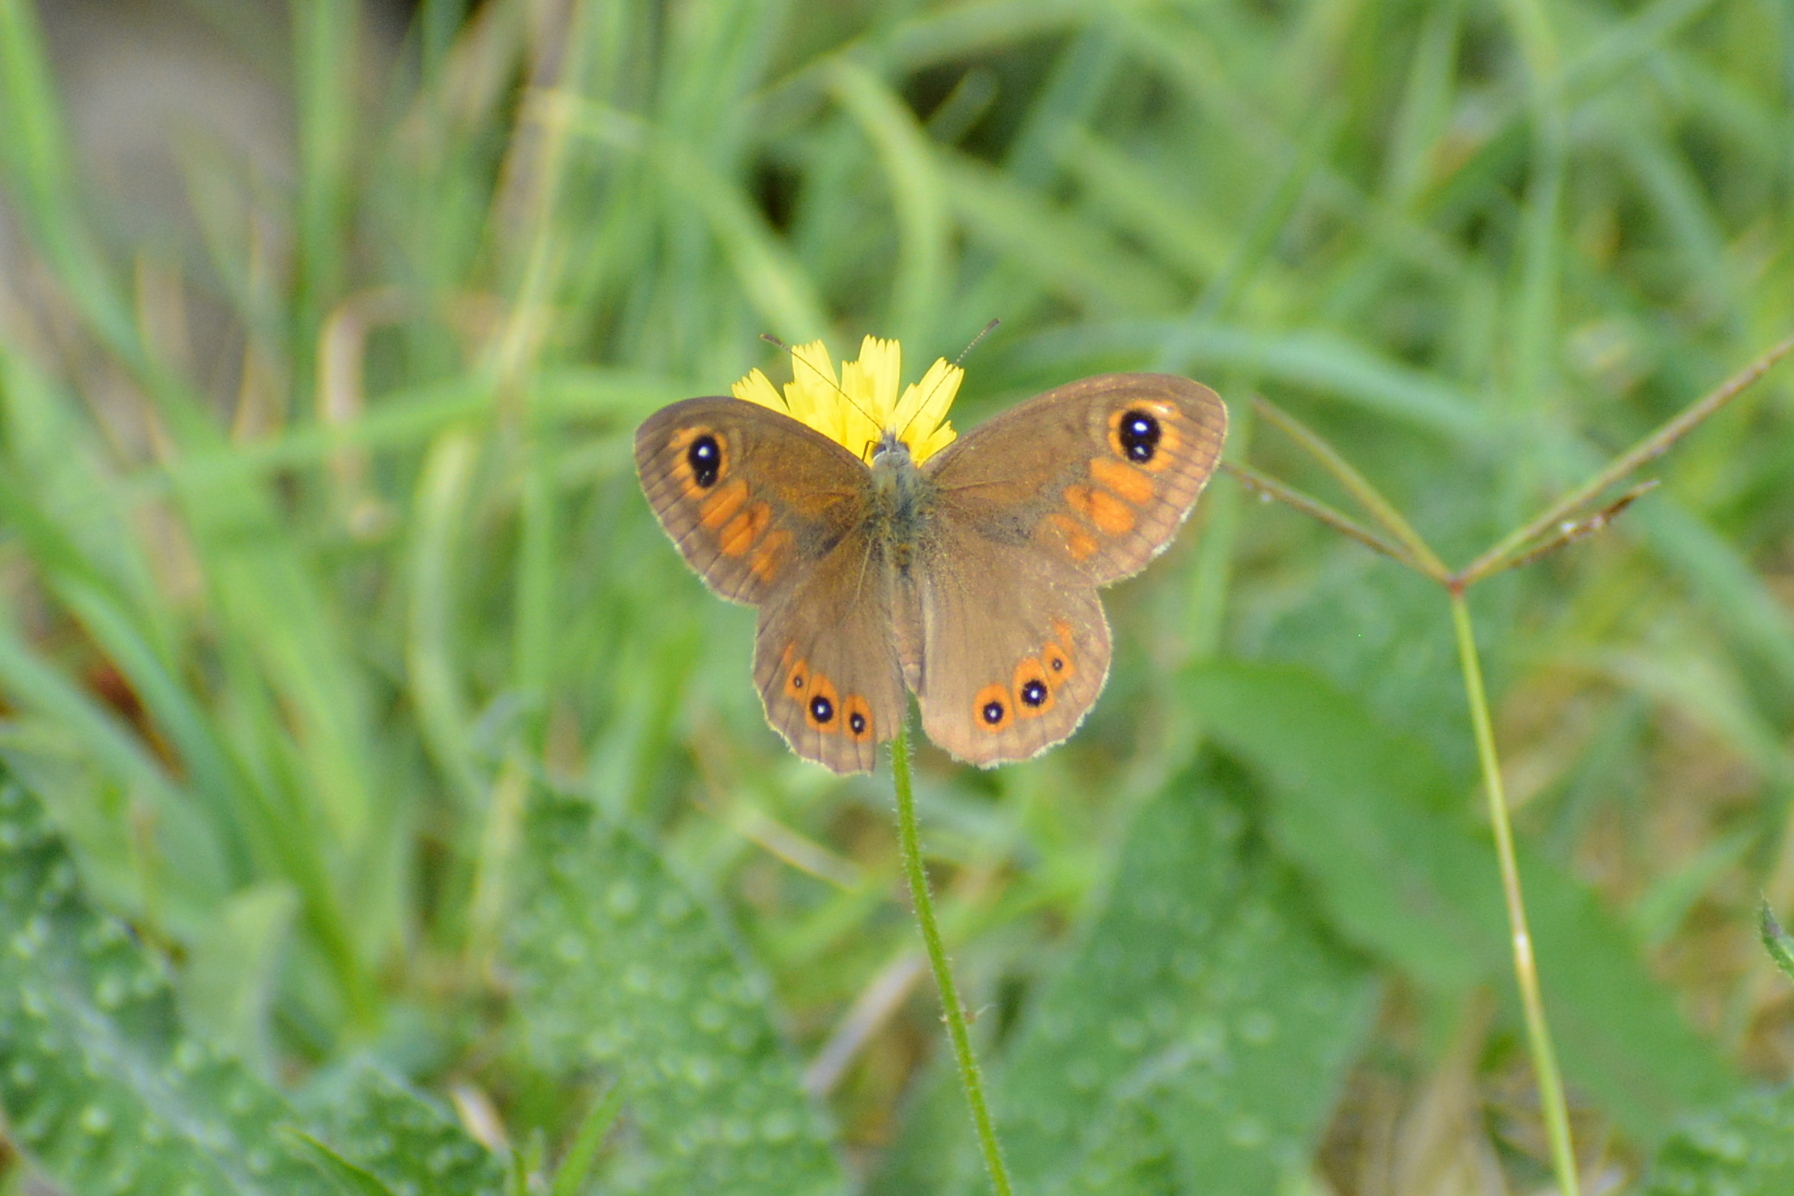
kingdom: Animalia
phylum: Arthropoda
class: Insecta
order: Lepidoptera
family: Nymphalidae
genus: Pararge
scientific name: Pararge Lasiommata maera
